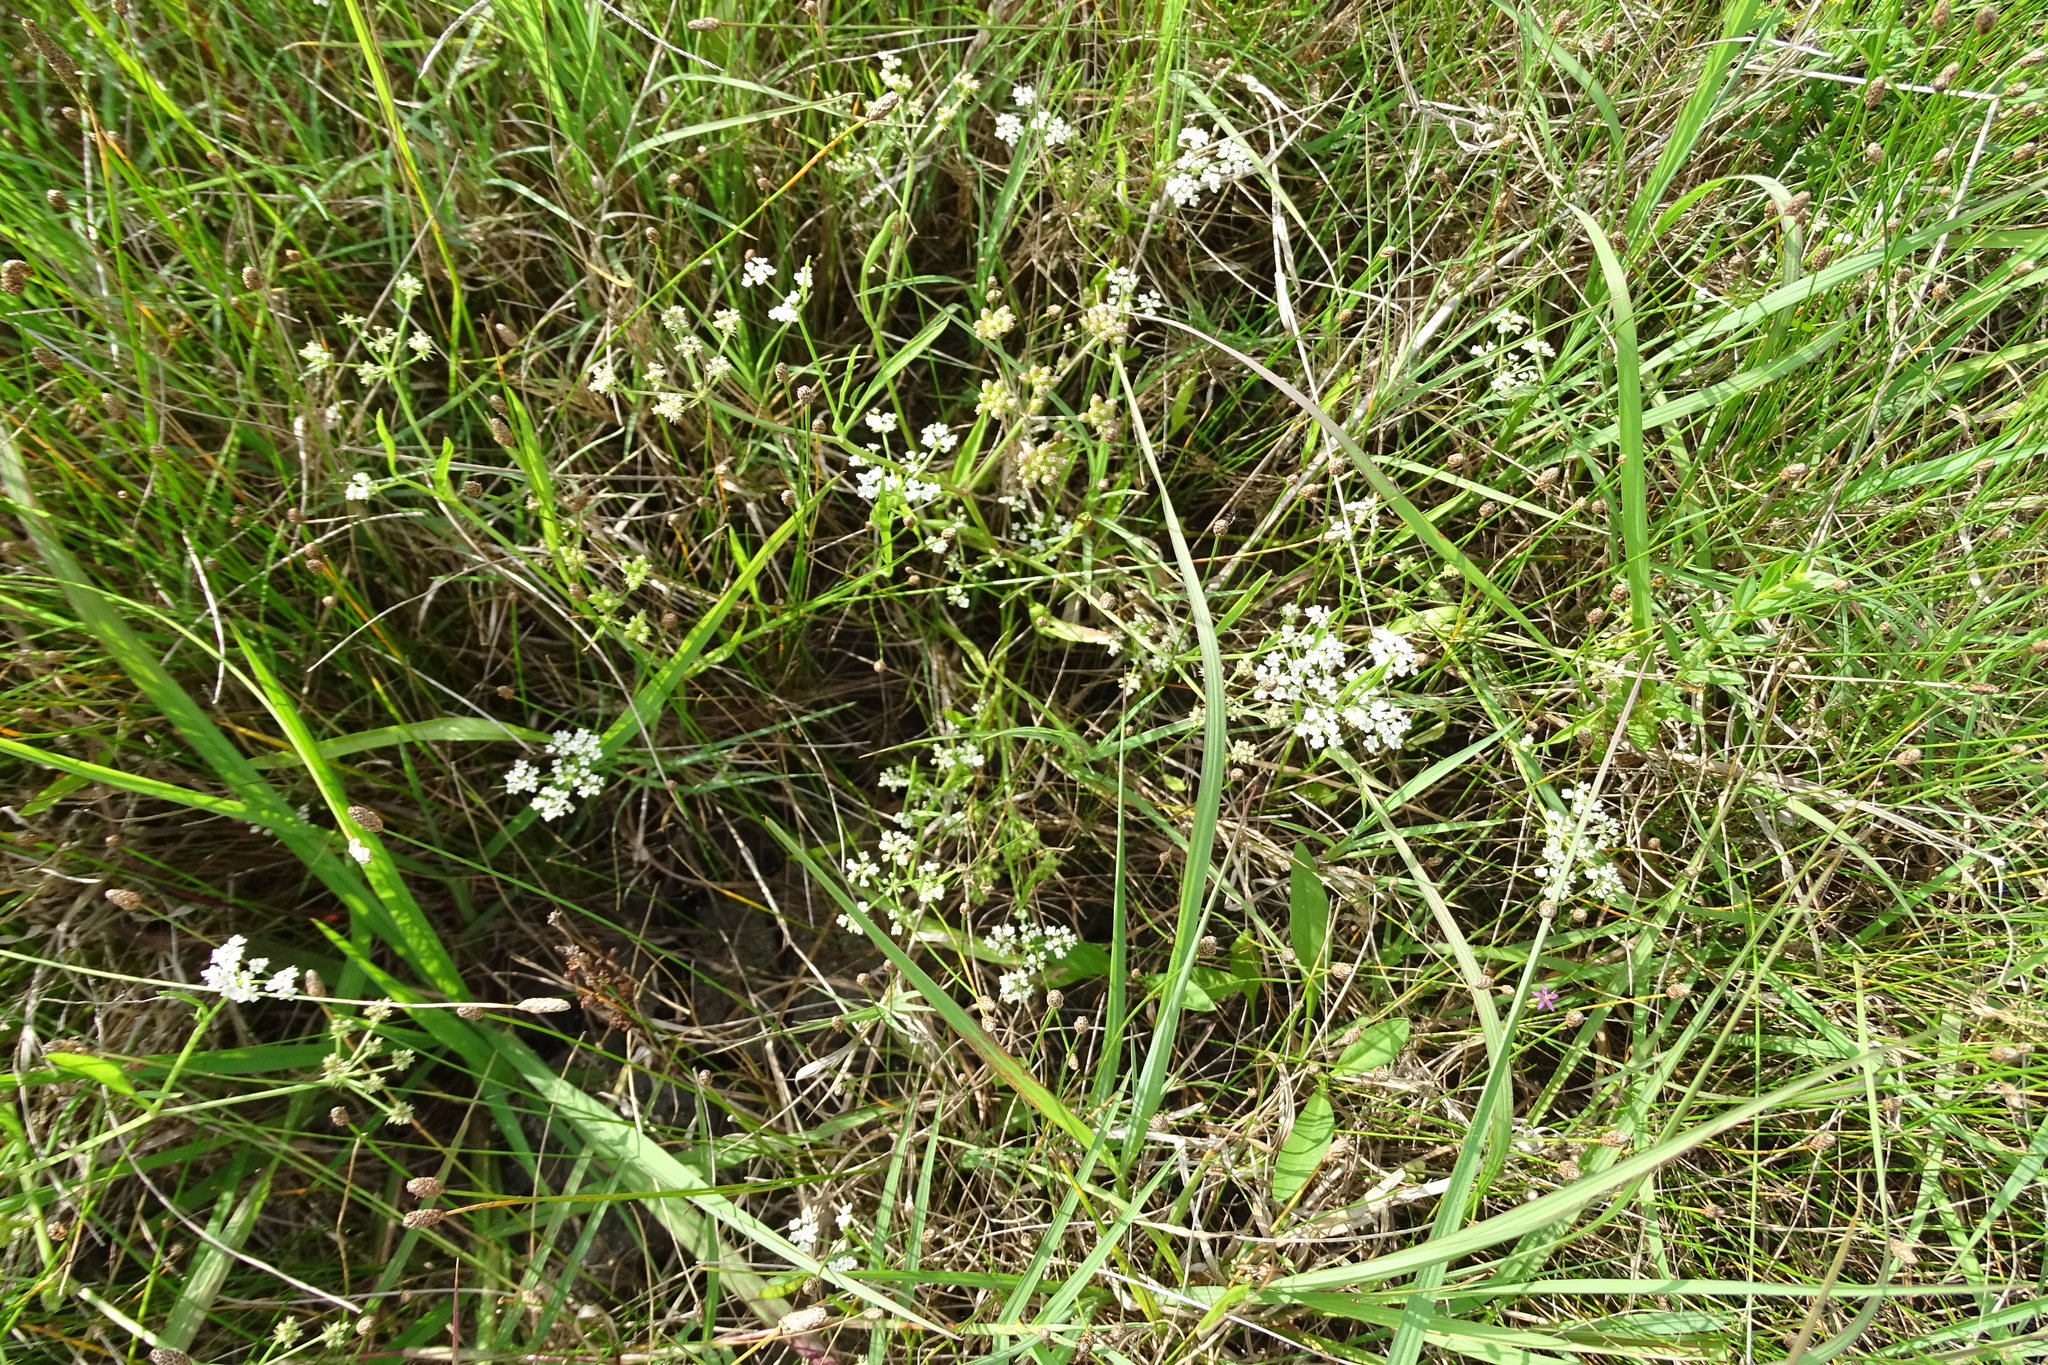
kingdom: Plantae
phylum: Tracheophyta
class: Magnoliopsida
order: Apiales
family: Apiaceae
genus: Limnosciadium
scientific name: Limnosciadium pinnatum
